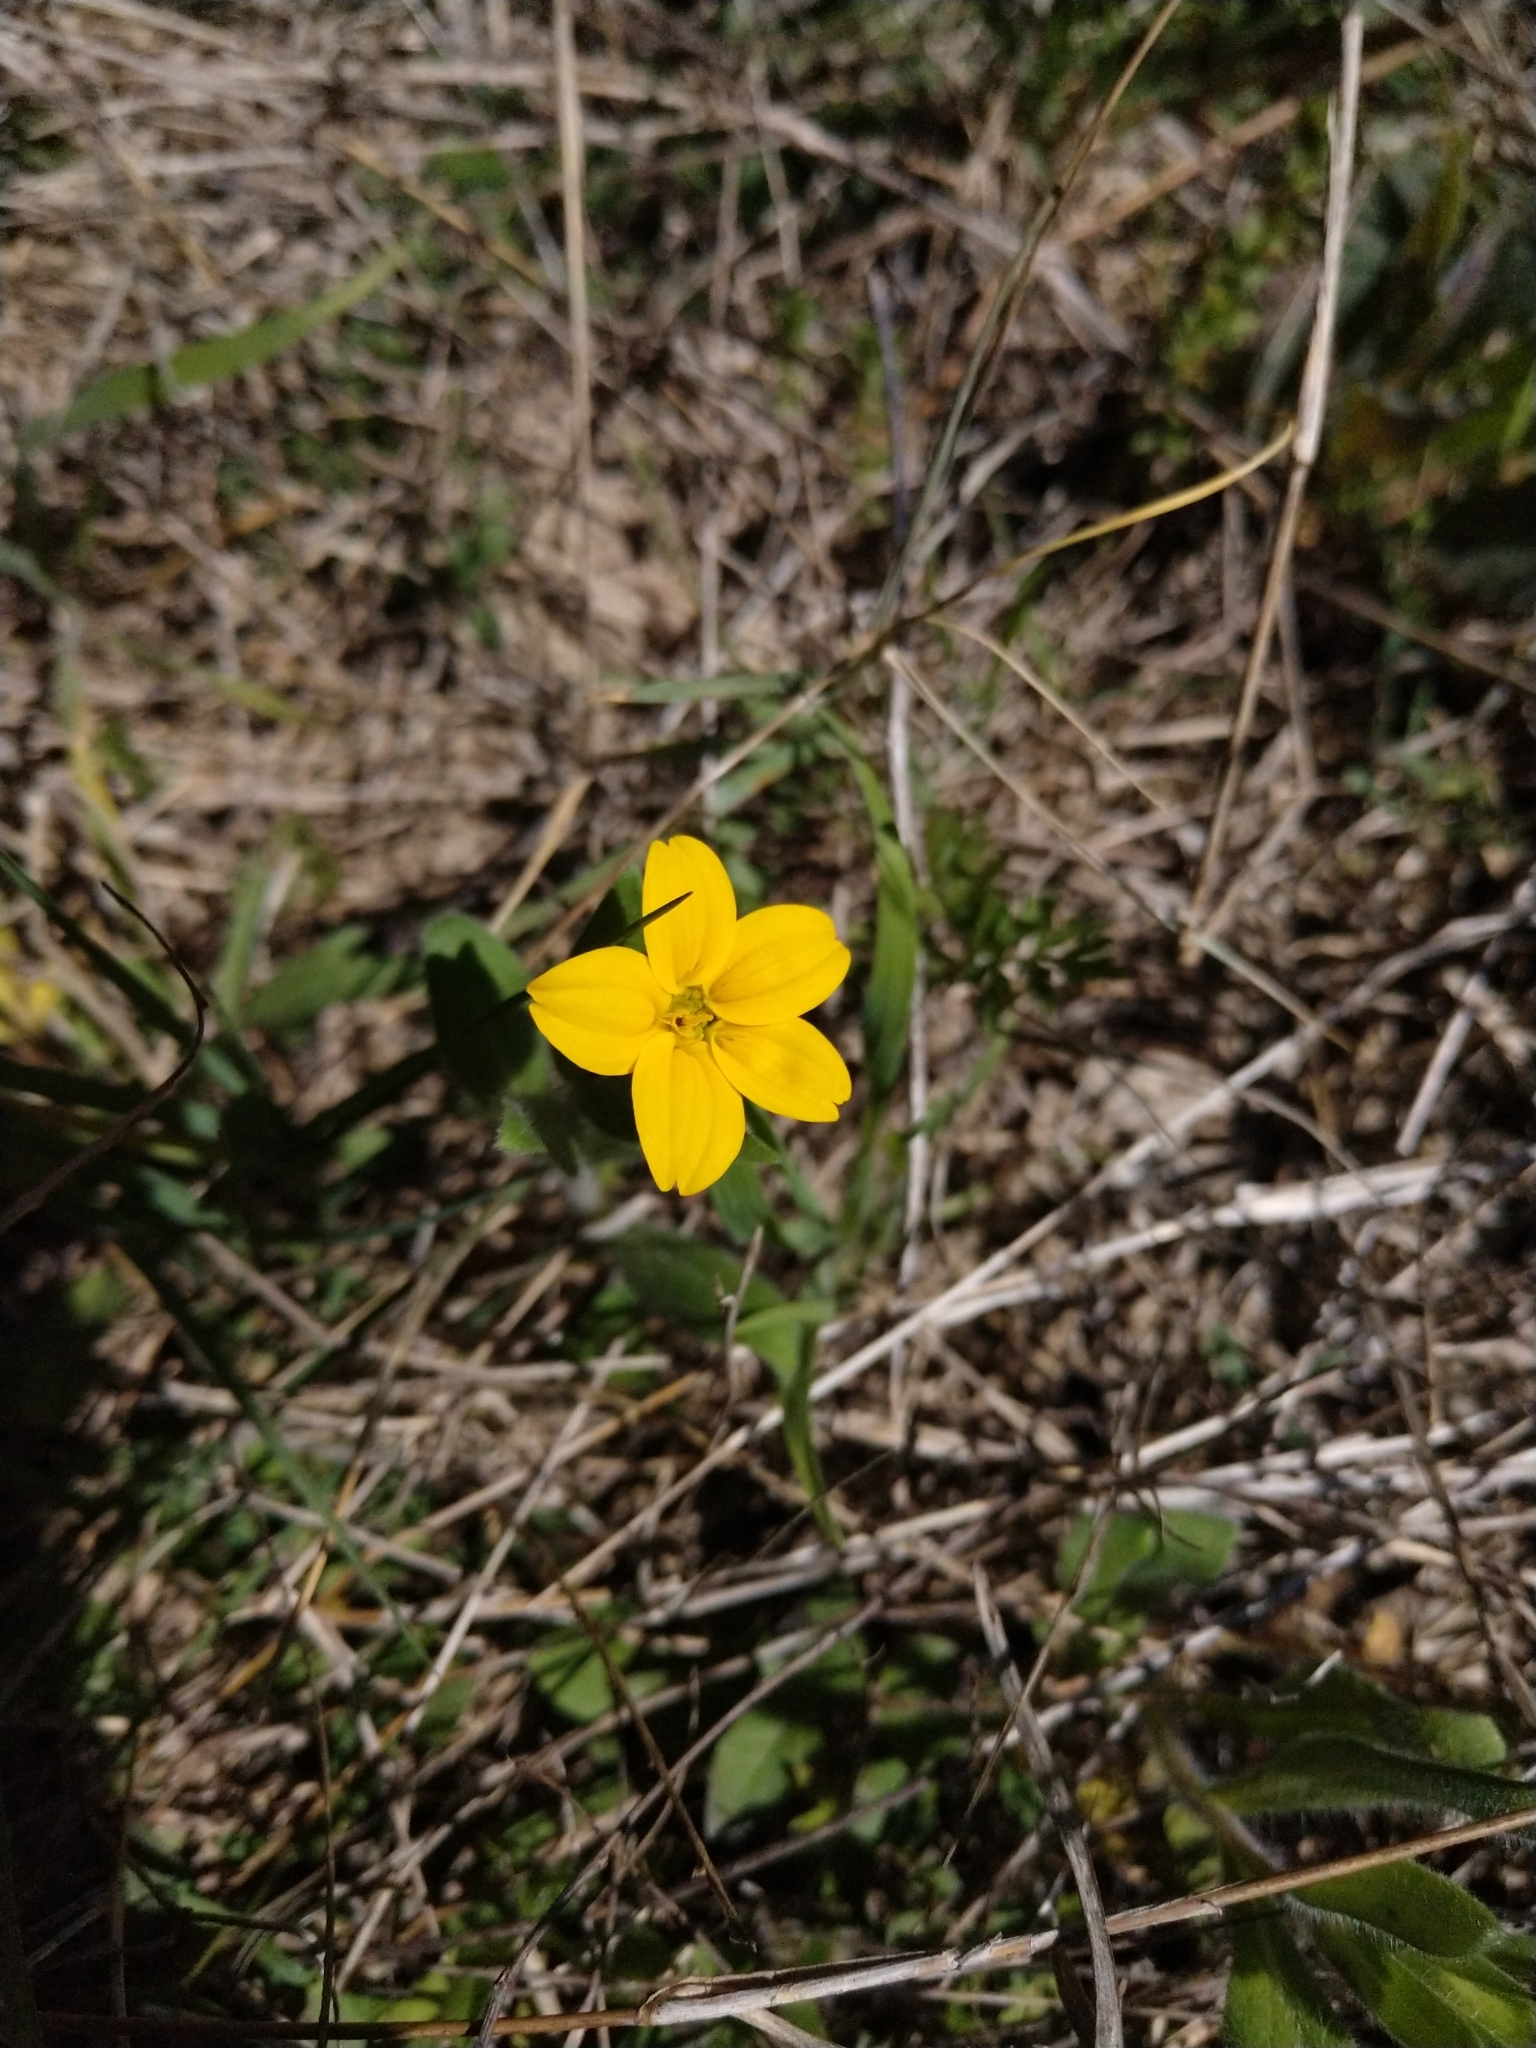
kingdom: Plantae
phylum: Tracheophyta
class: Magnoliopsida
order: Asterales
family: Asteraceae
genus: Lindheimera
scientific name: Lindheimera texana
